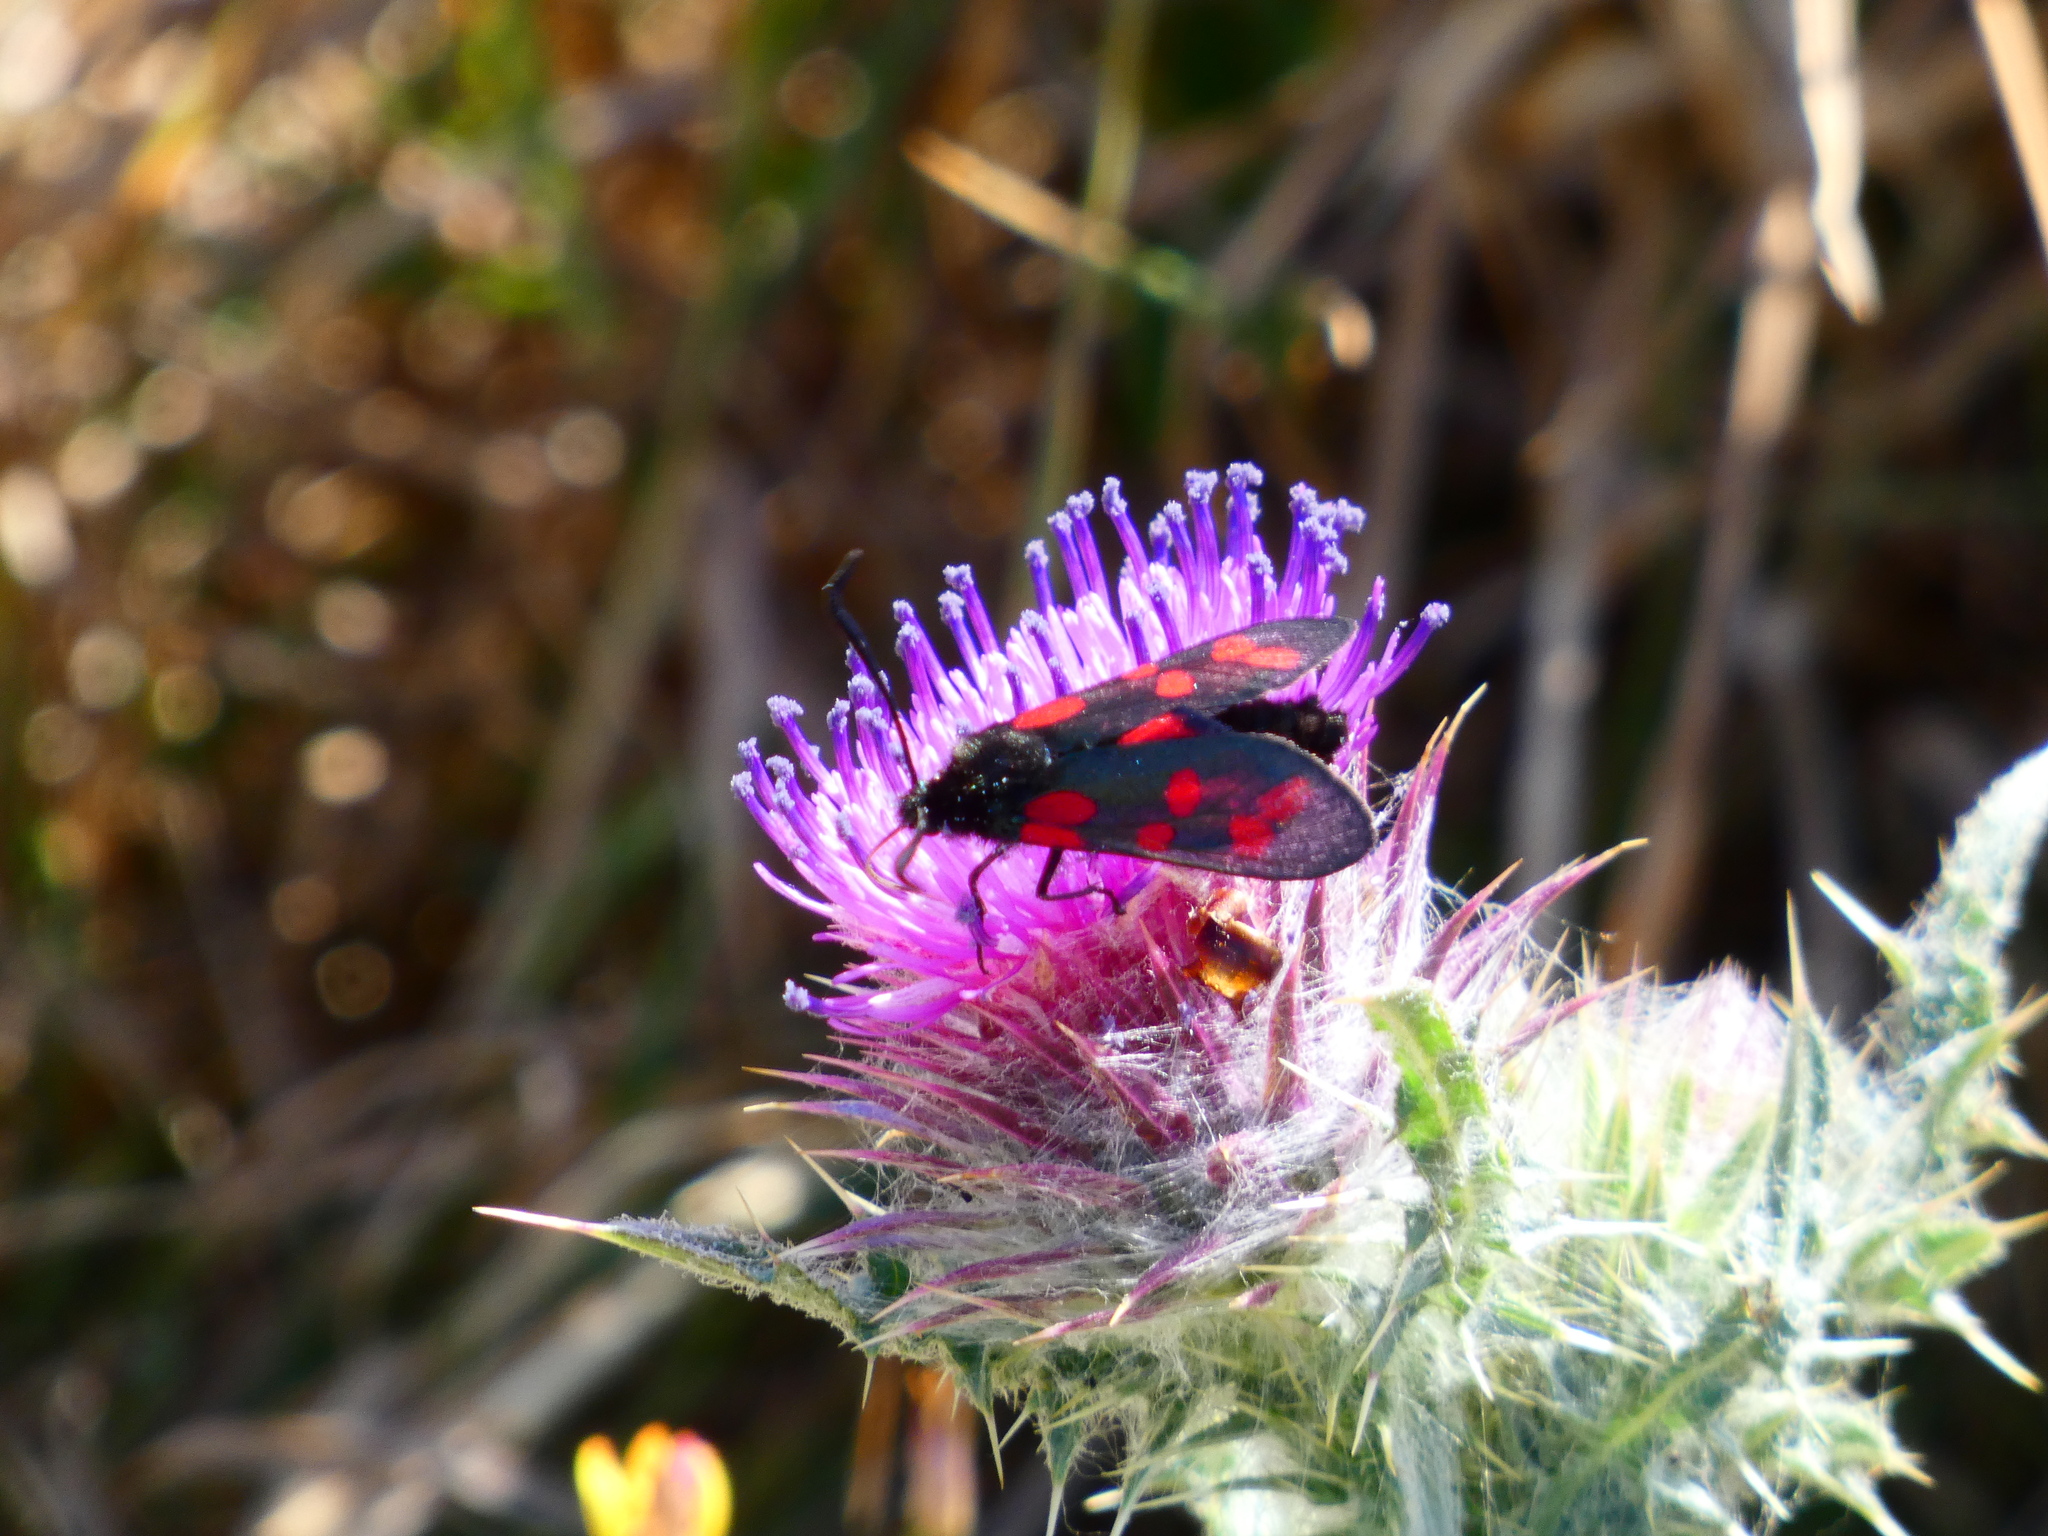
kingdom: Animalia
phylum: Arthropoda
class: Insecta
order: Lepidoptera
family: Zygaenidae
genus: Zygaena
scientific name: Zygaena filipendulae
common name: Six-spot burnet
